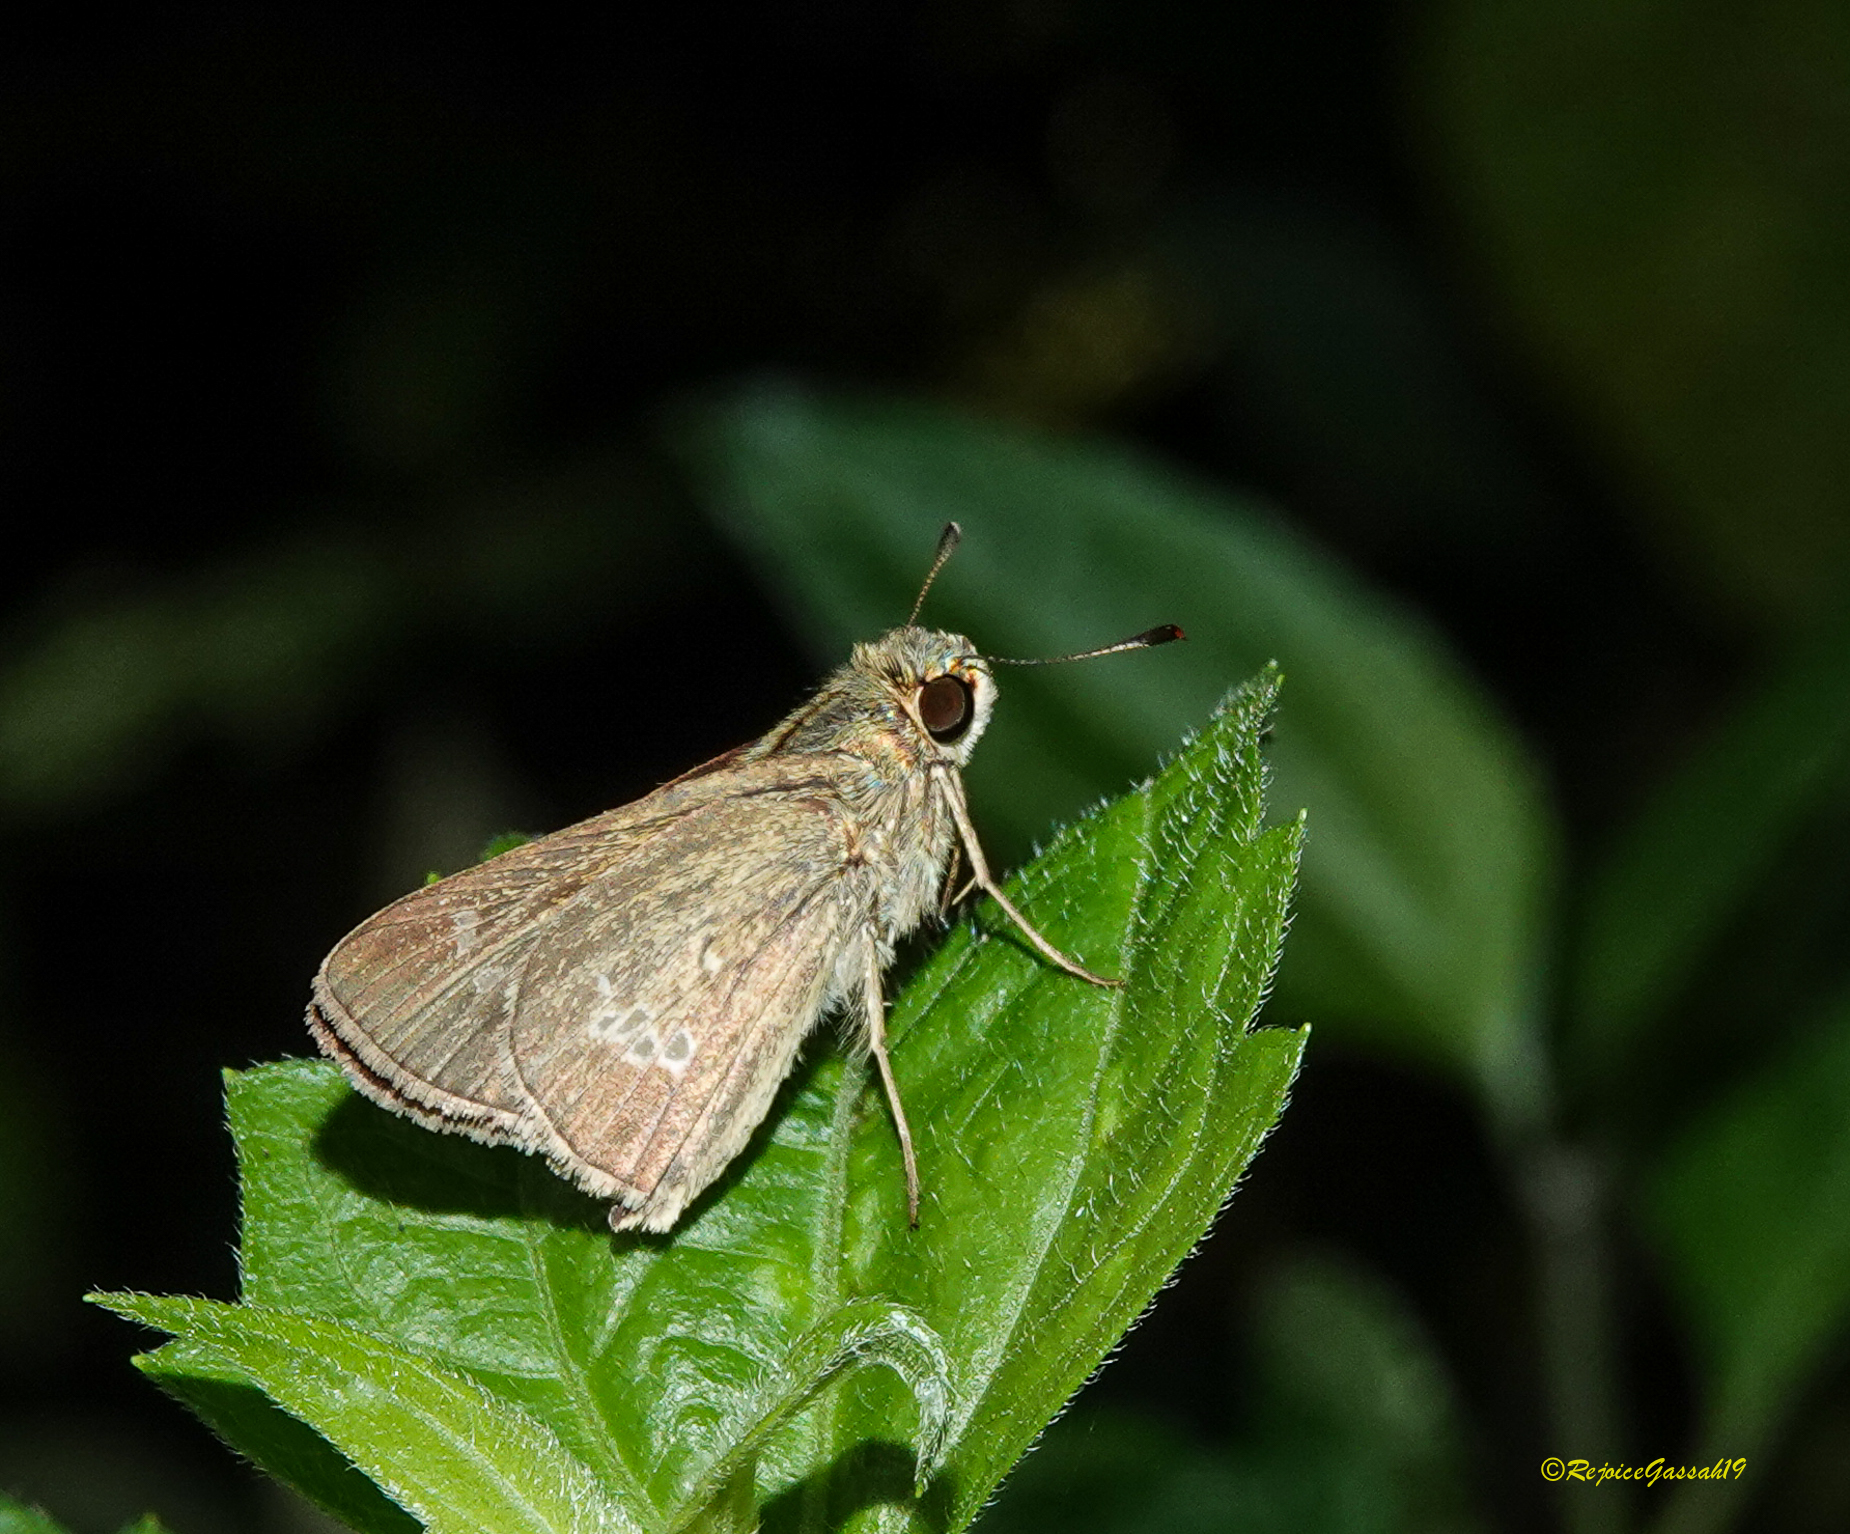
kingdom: Animalia
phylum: Arthropoda
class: Insecta
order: Lepidoptera
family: Hesperiidae
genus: Parnara
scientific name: Parnara naso
